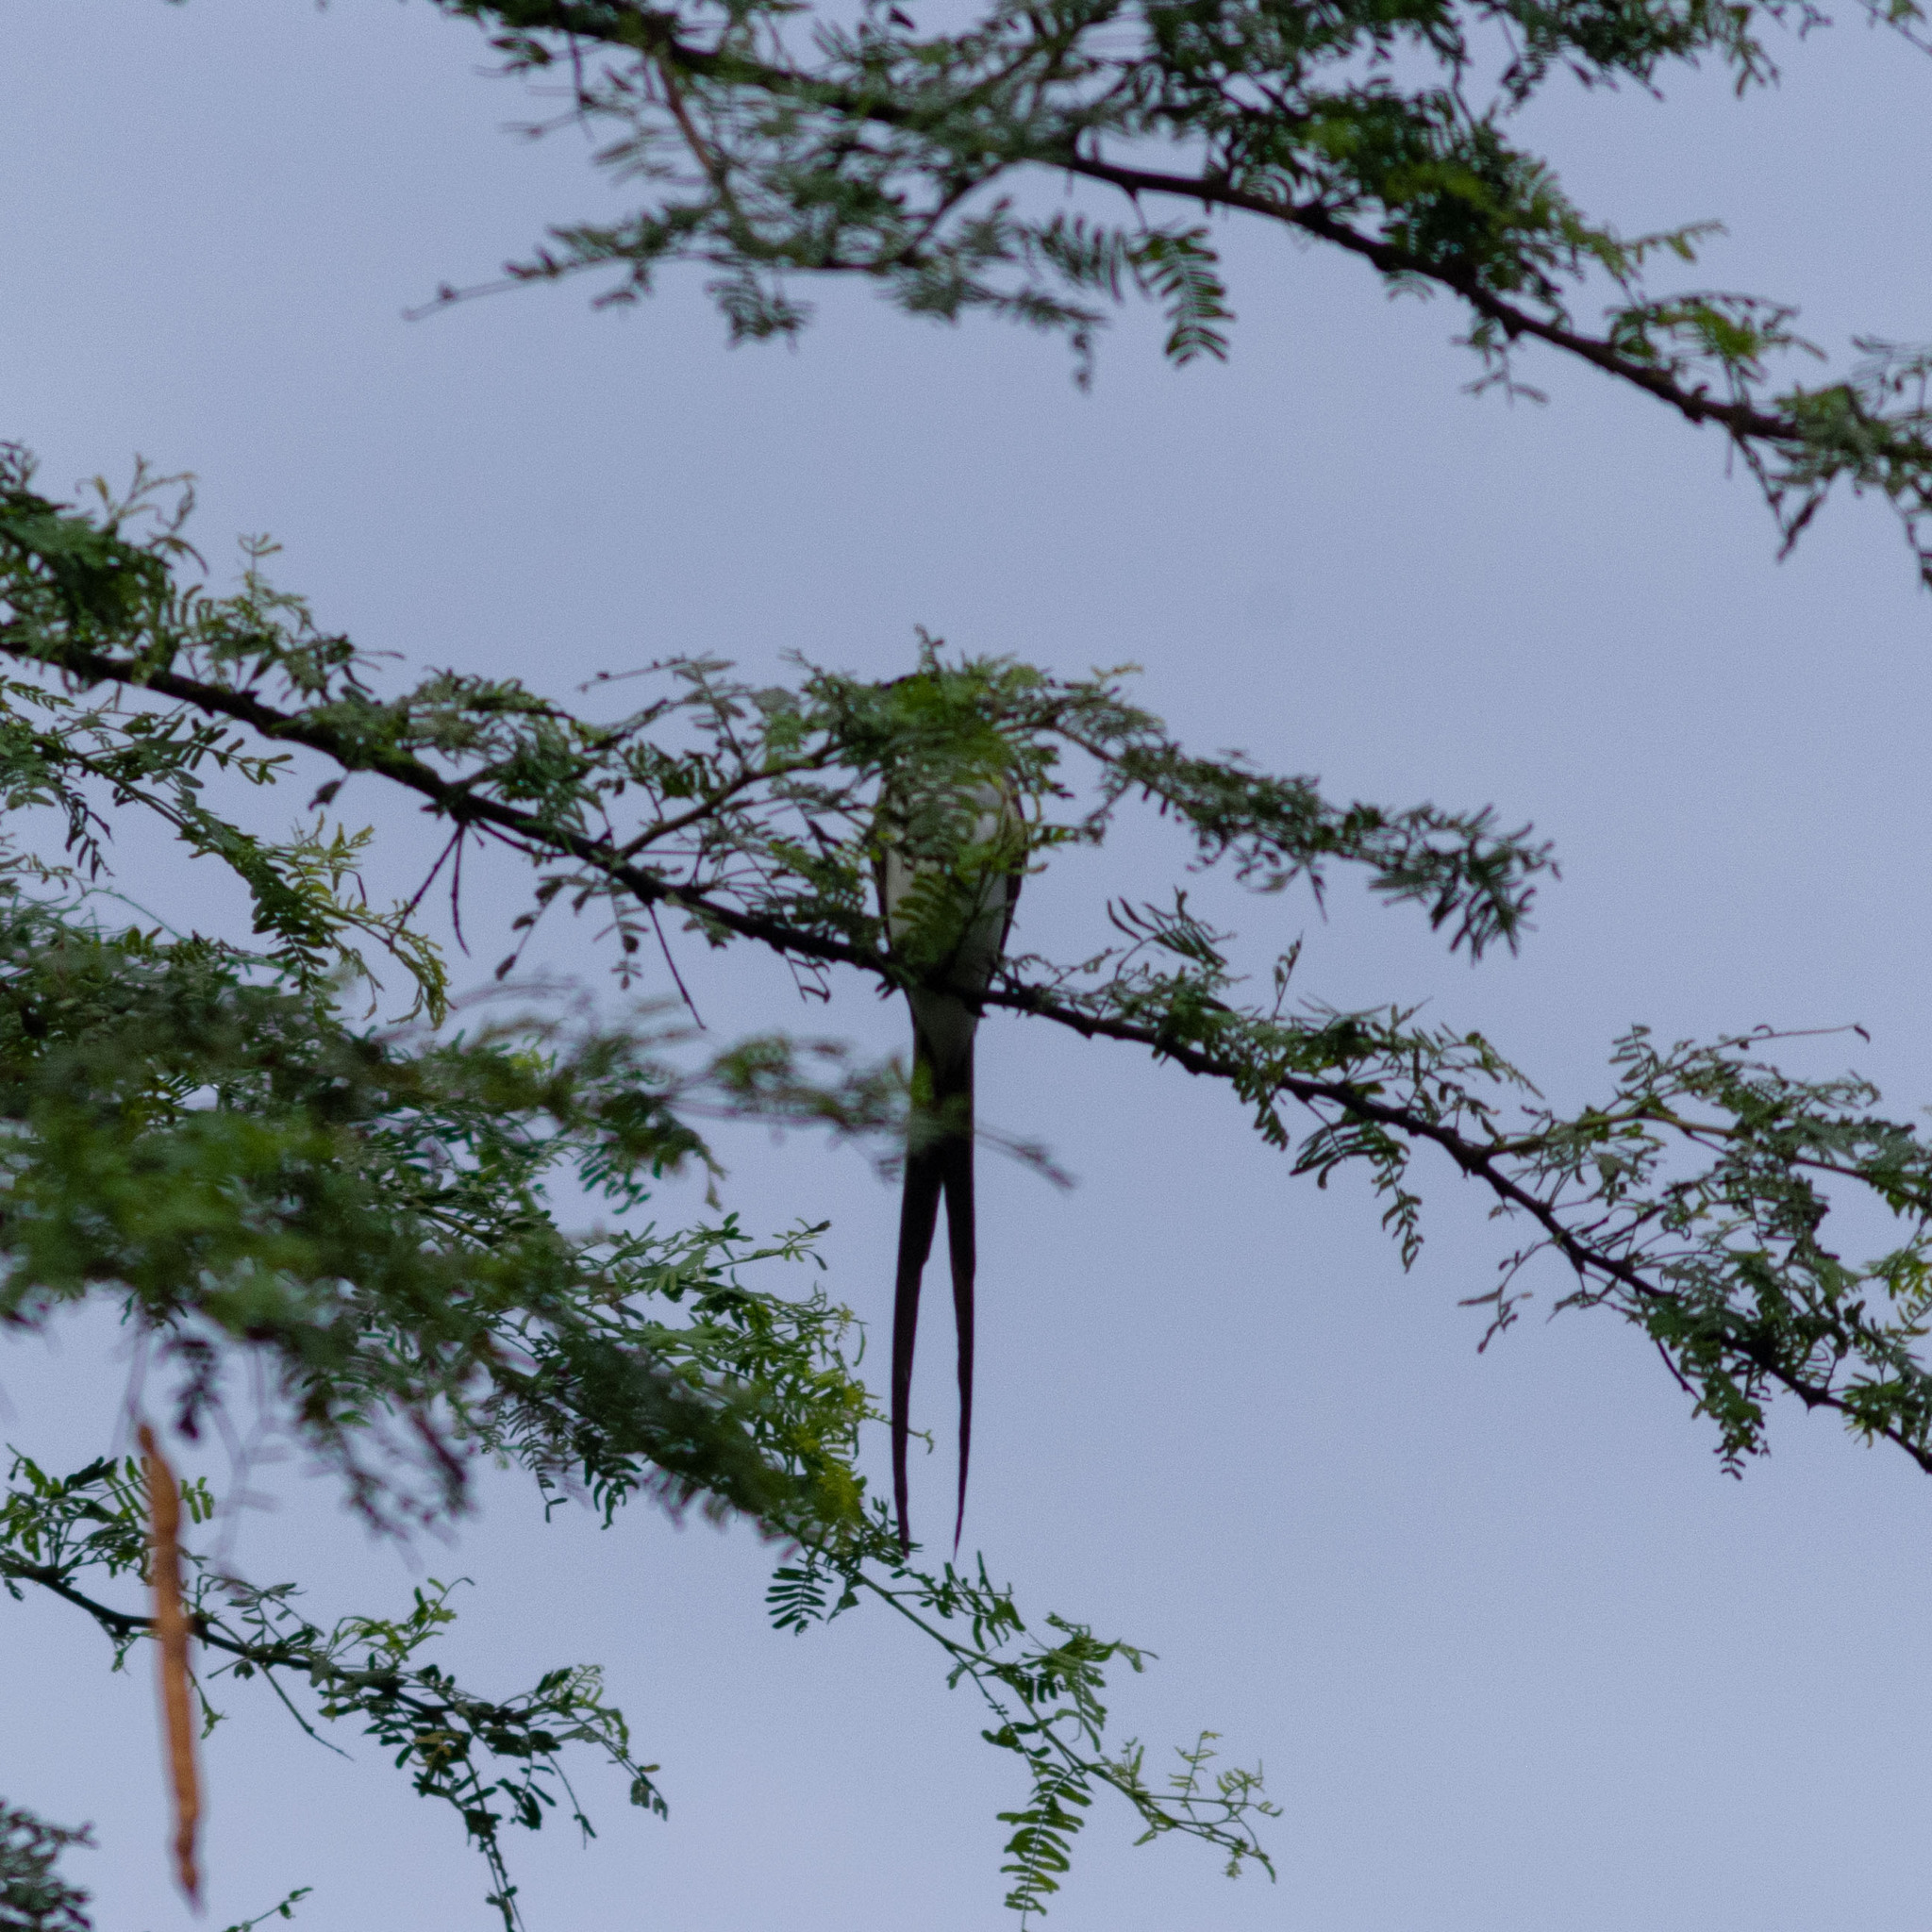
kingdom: Animalia
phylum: Chordata
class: Aves
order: Passeriformes
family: Tyrannidae
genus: Tyrannus
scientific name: Tyrannus savana
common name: Fork-tailed flycatcher
